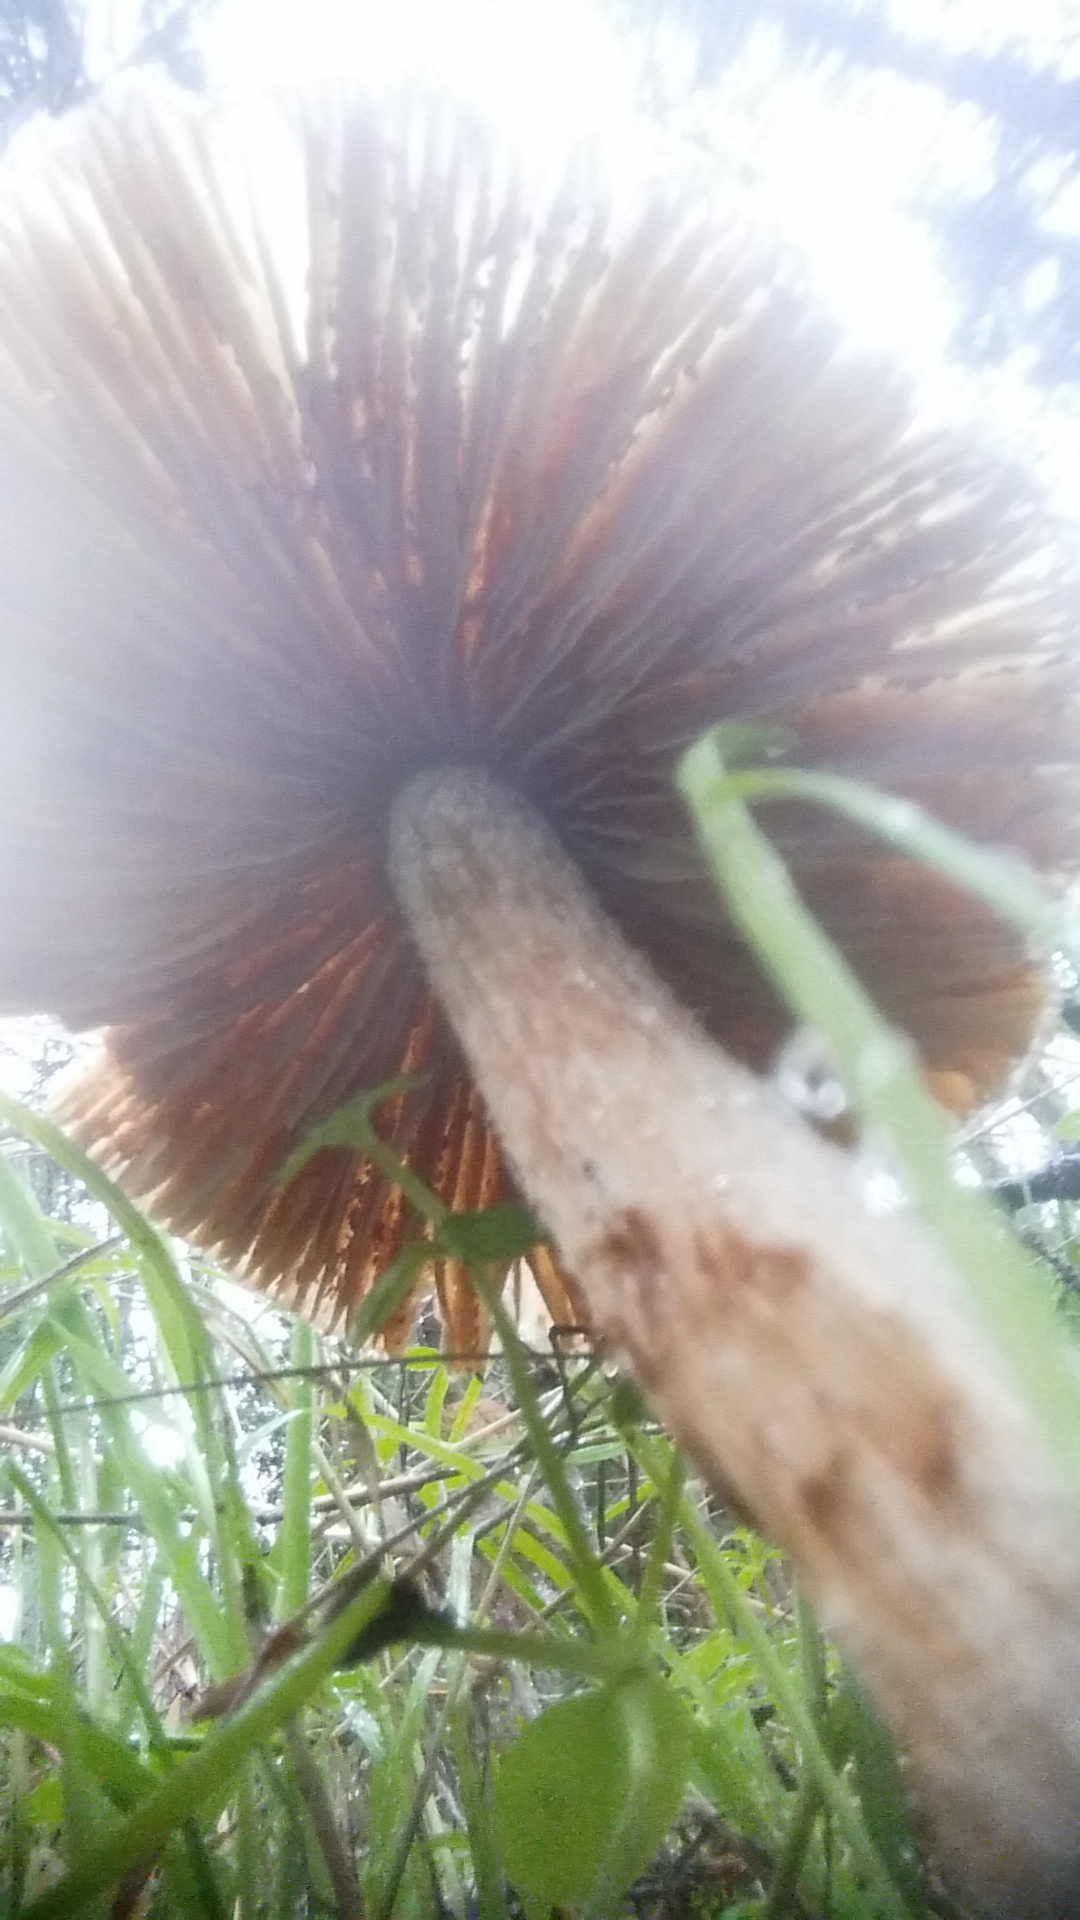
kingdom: Fungi
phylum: Basidiomycota
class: Agaricomycetes
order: Agaricales
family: Hydnangiaceae
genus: Laccaria
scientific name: Laccaria amethysteo-occidentalis
